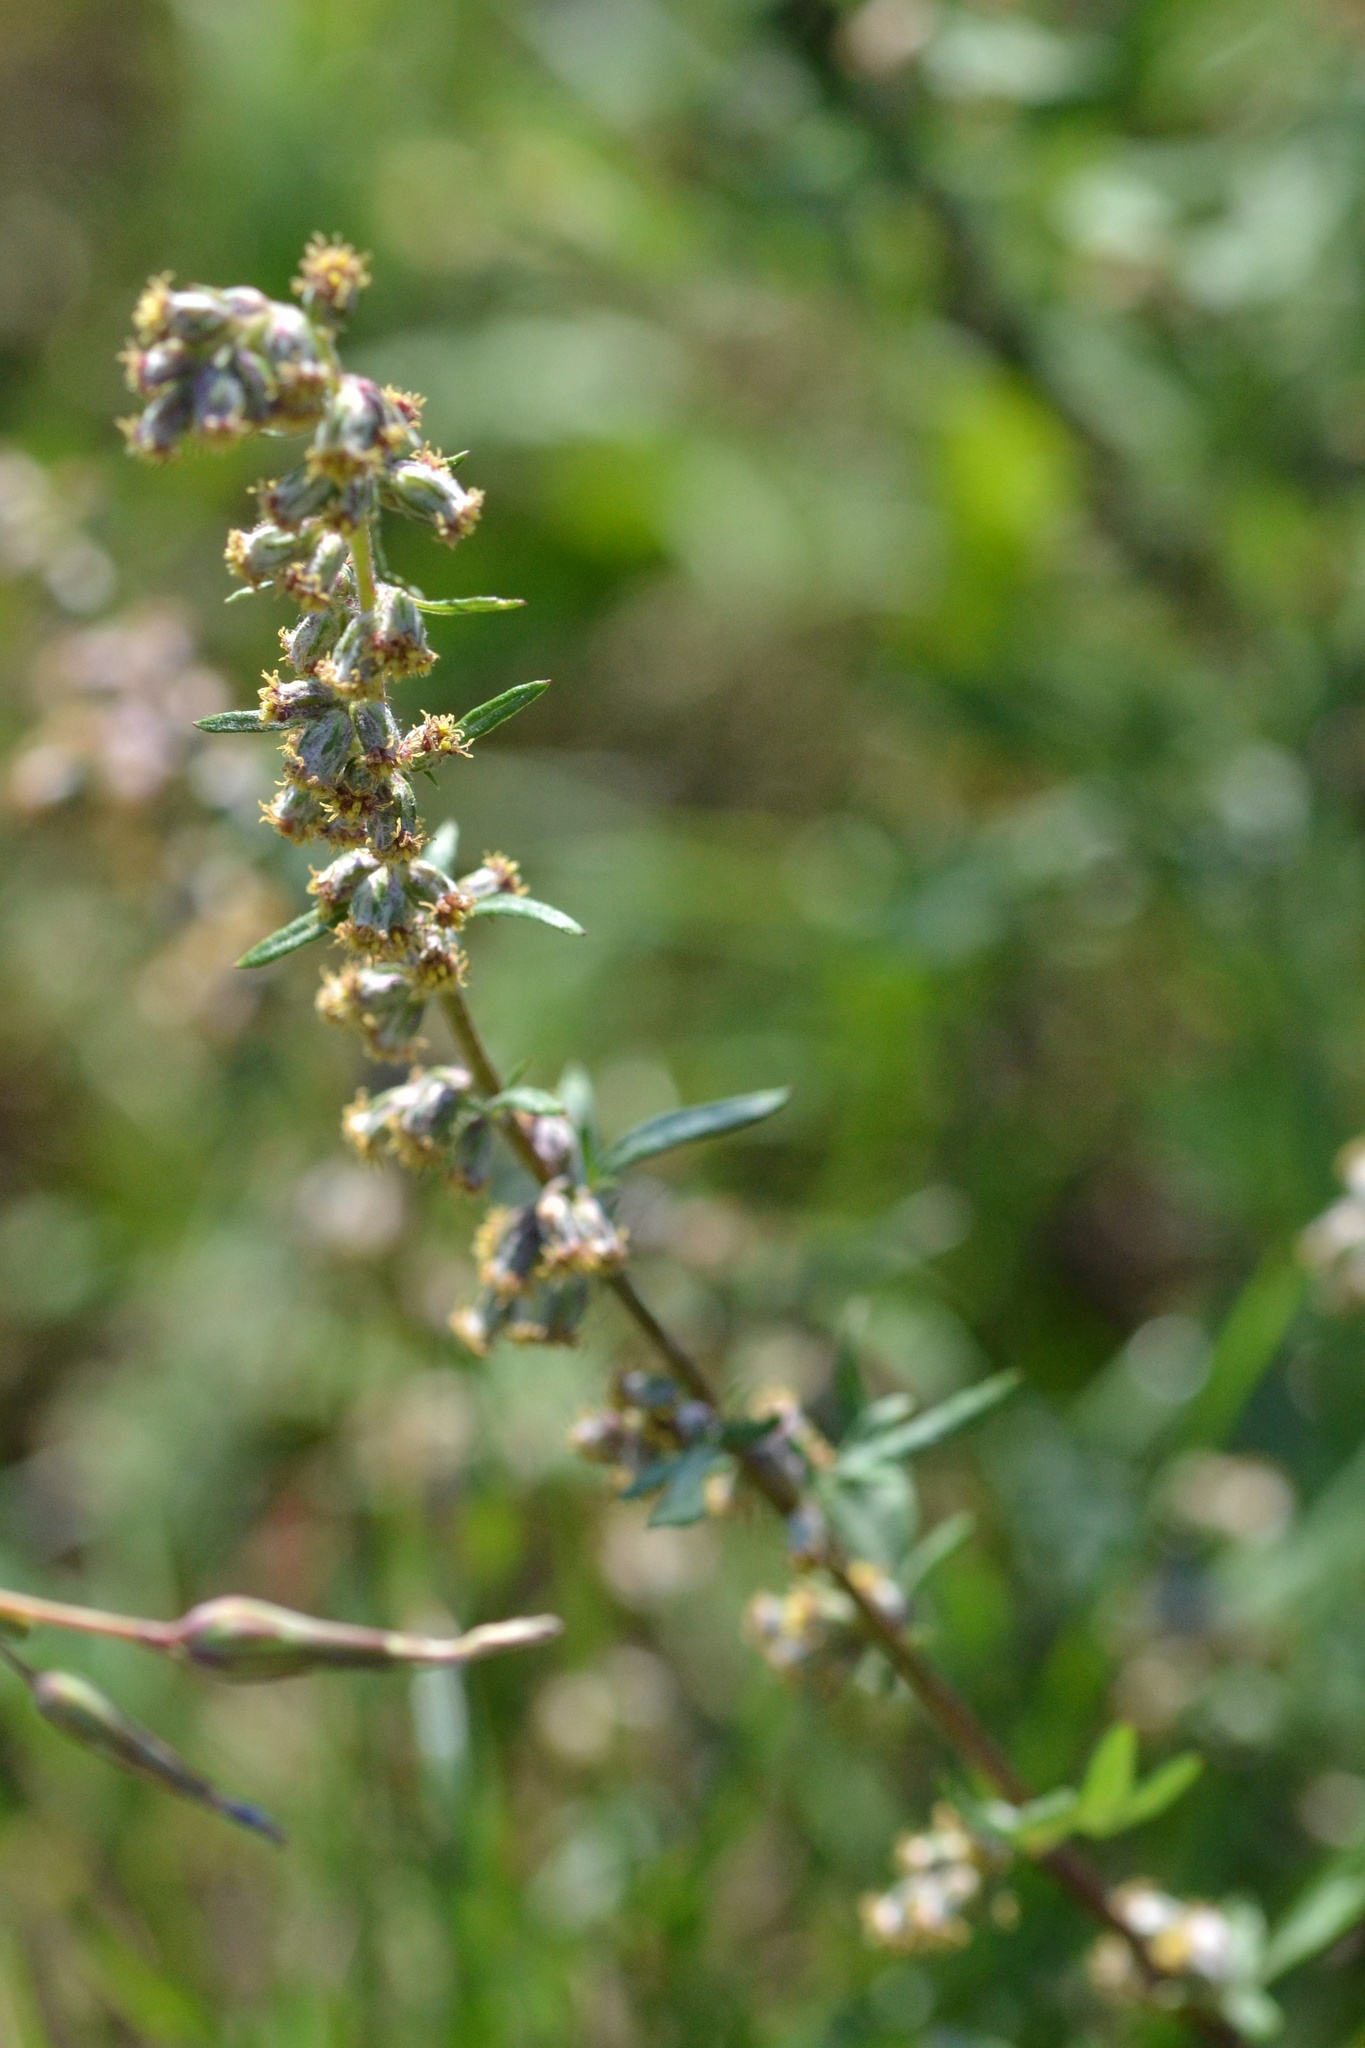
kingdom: Plantae
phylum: Tracheophyta
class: Magnoliopsida
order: Asterales
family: Asteraceae
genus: Artemisia
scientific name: Artemisia vulgaris
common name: Mugwort
